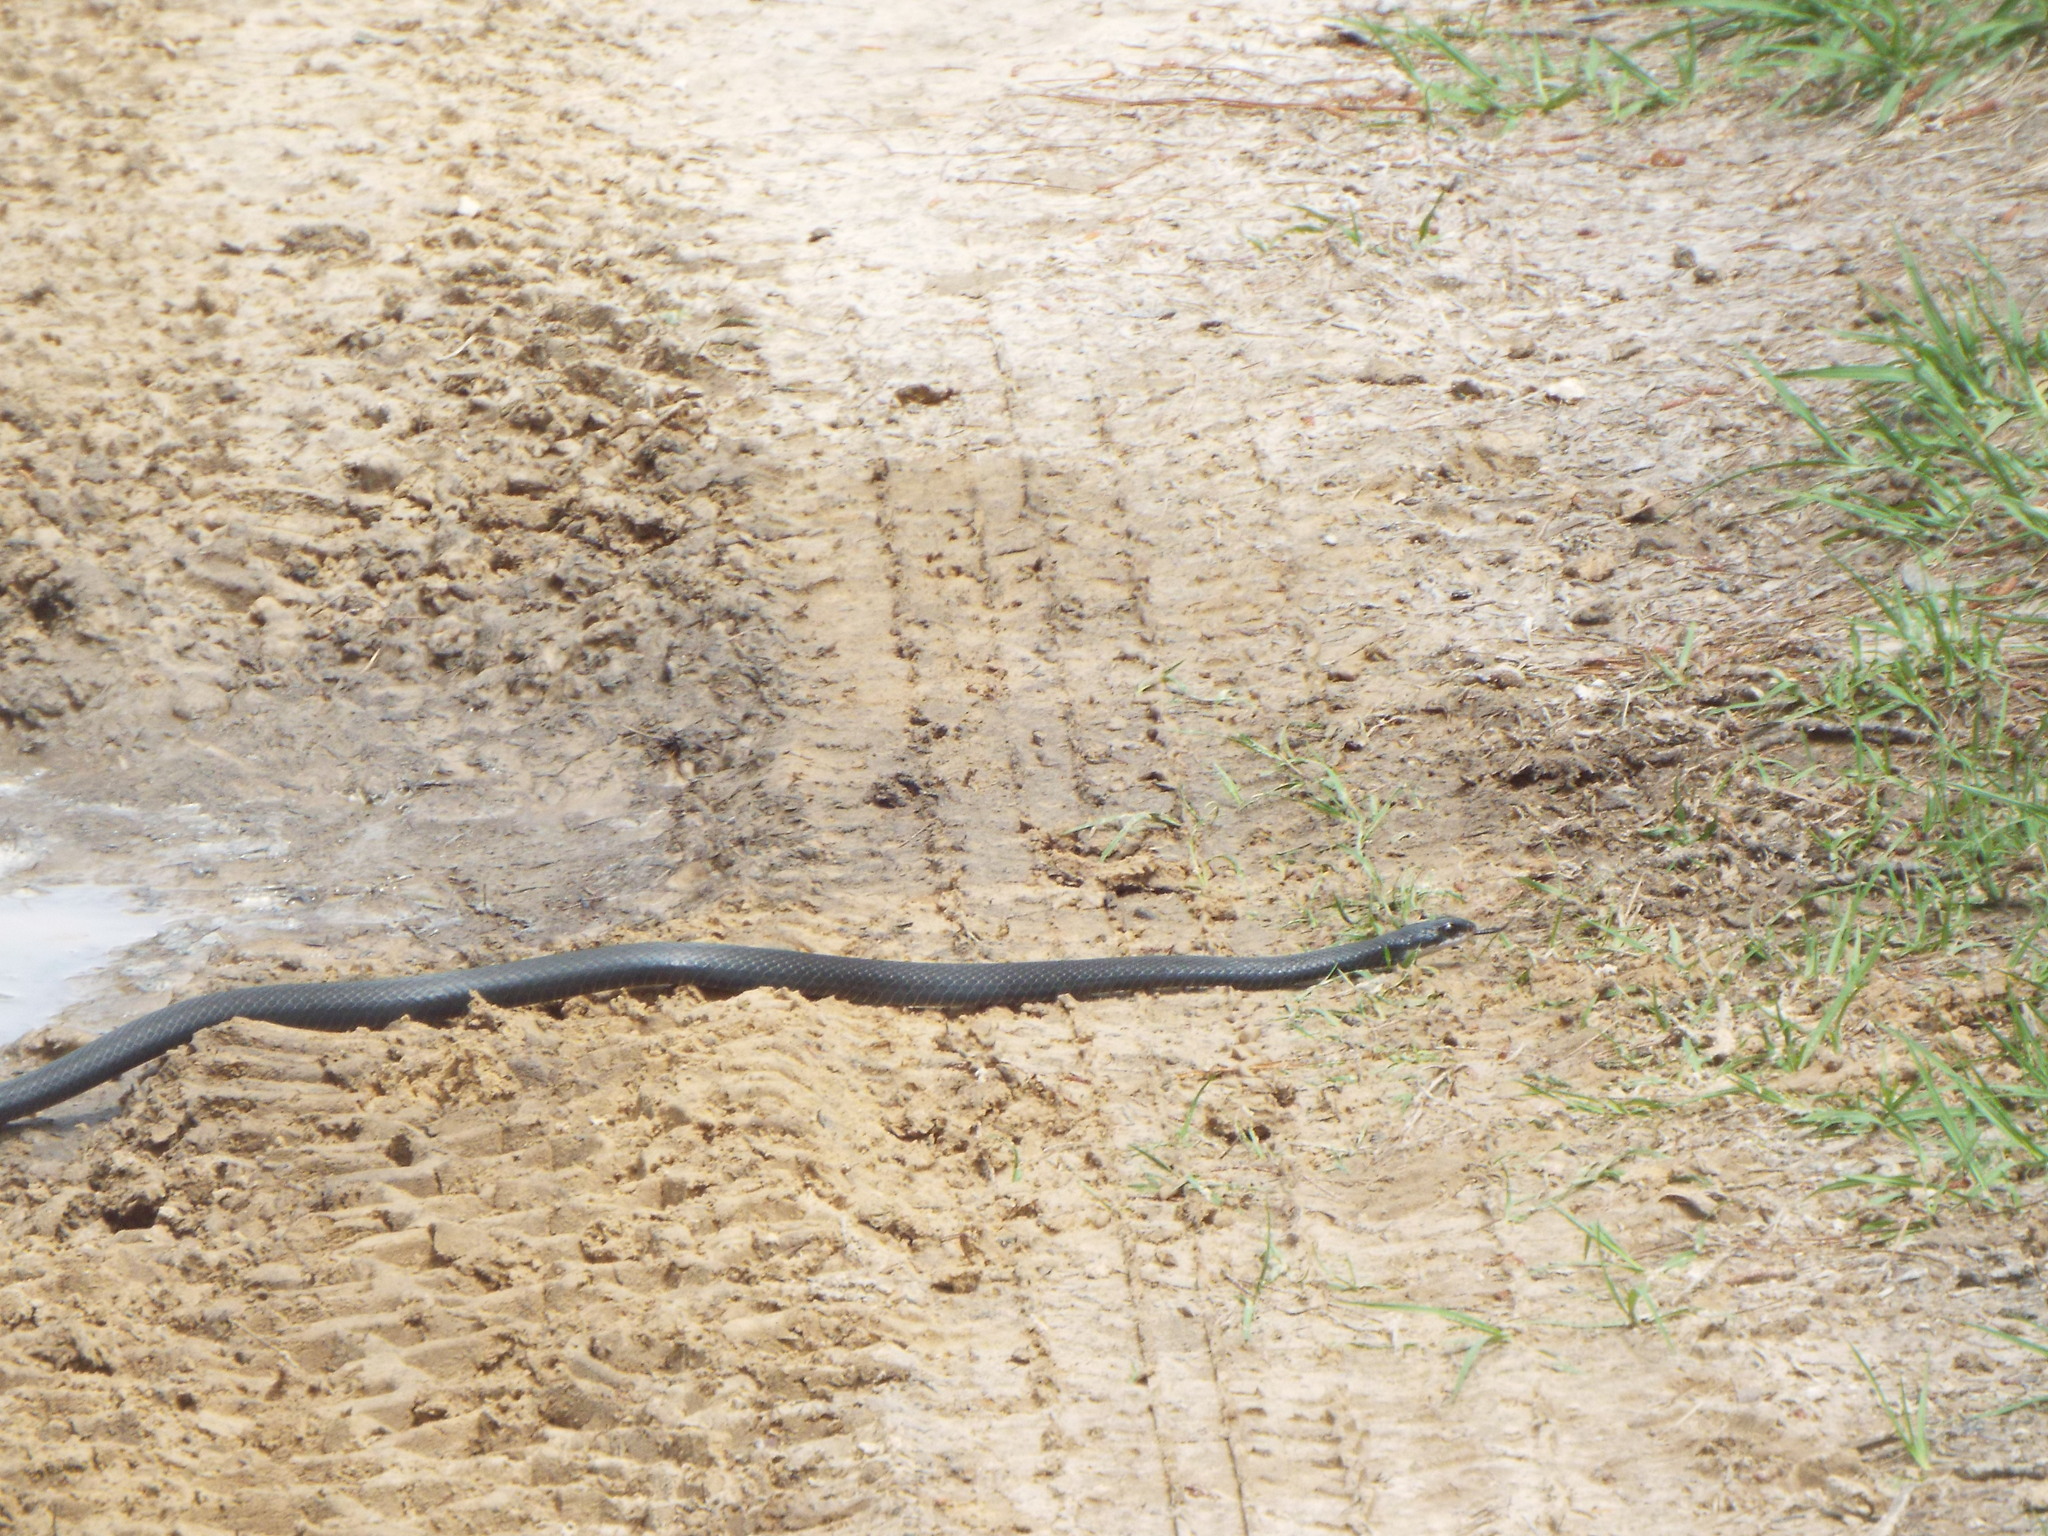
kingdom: Animalia
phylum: Chordata
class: Squamata
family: Colubridae
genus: Coluber
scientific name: Coluber constrictor
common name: Eastern racer
